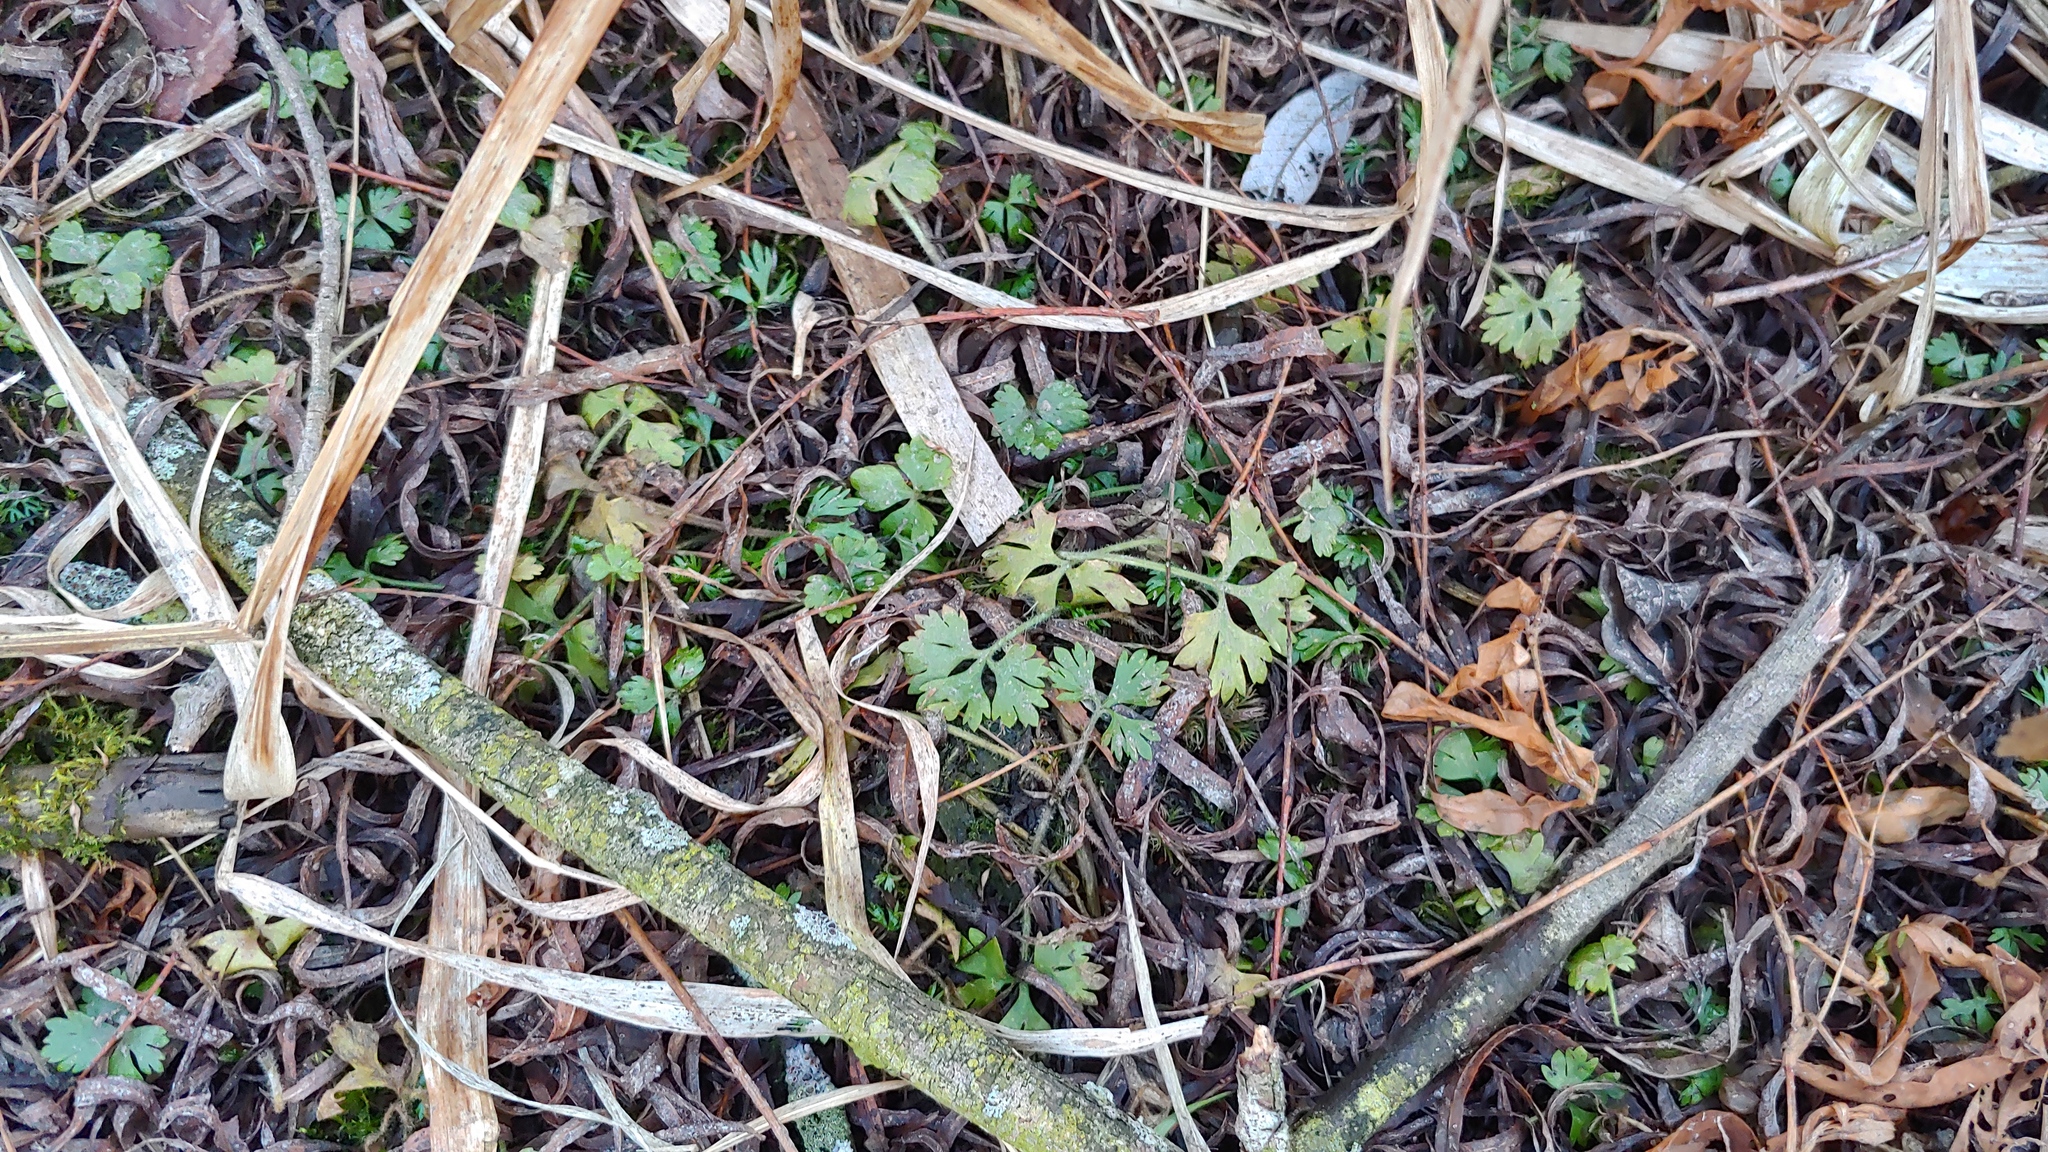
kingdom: Plantae
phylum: Tracheophyta
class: Magnoliopsida
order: Ranunculales
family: Ranunculaceae
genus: Ranunculus
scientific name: Ranunculus flabellaris
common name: Yellow water-crowfoot
